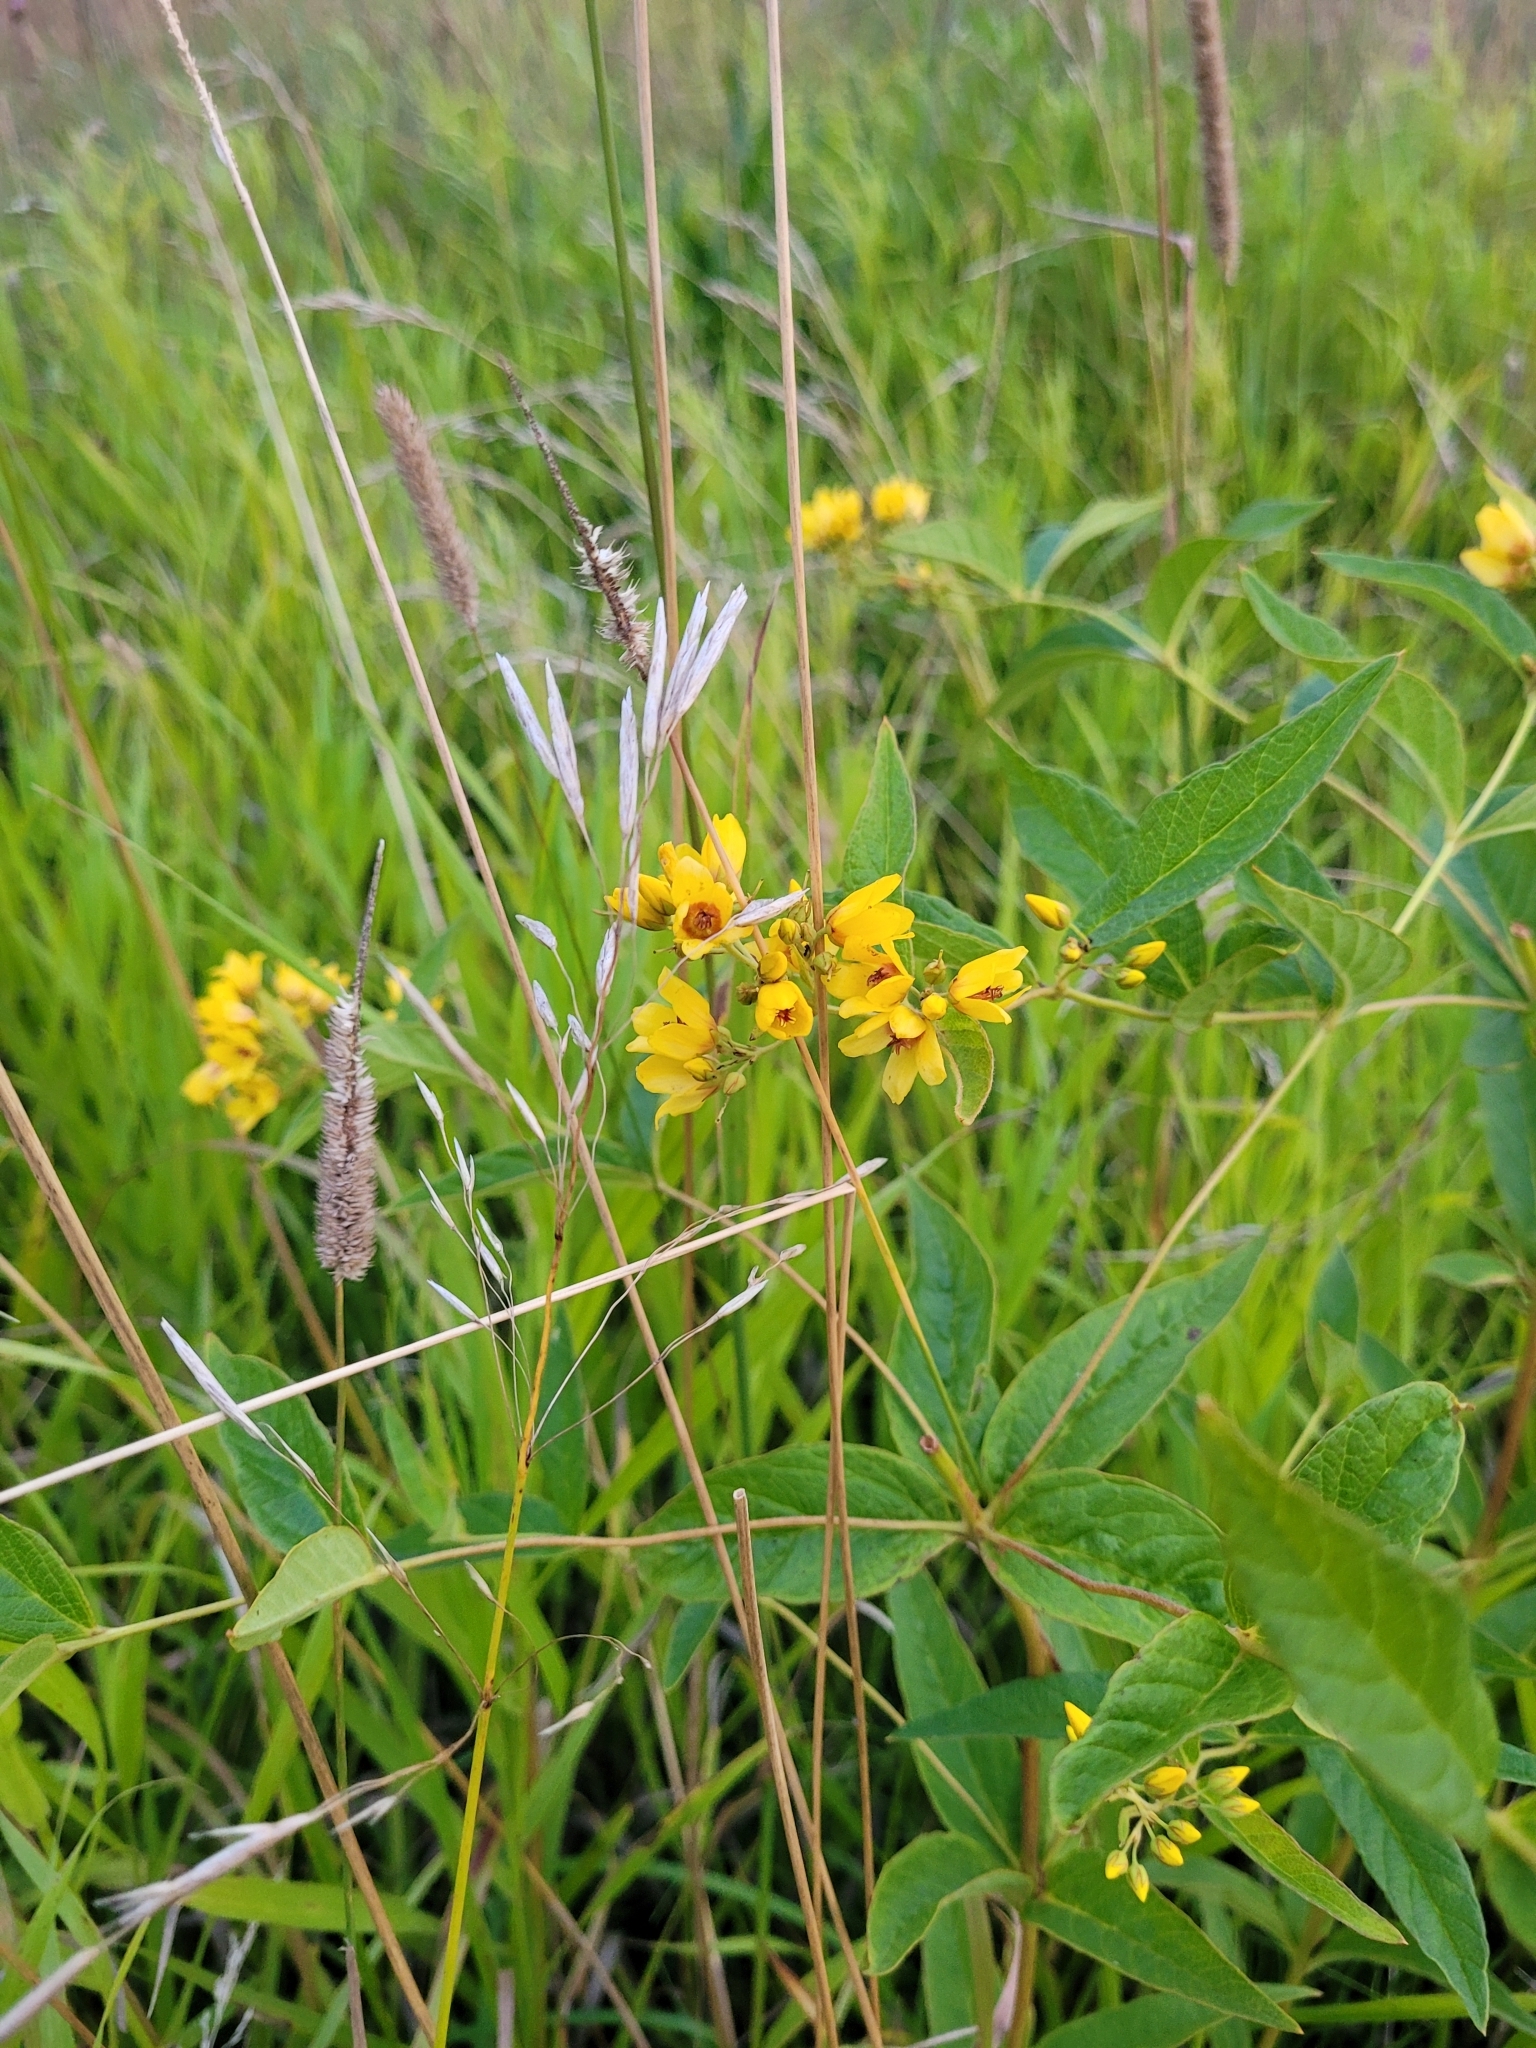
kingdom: Plantae
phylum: Tracheophyta
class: Magnoliopsida
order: Ericales
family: Primulaceae
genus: Lysimachia
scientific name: Lysimachia vulgaris
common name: Yellow loosestrife
